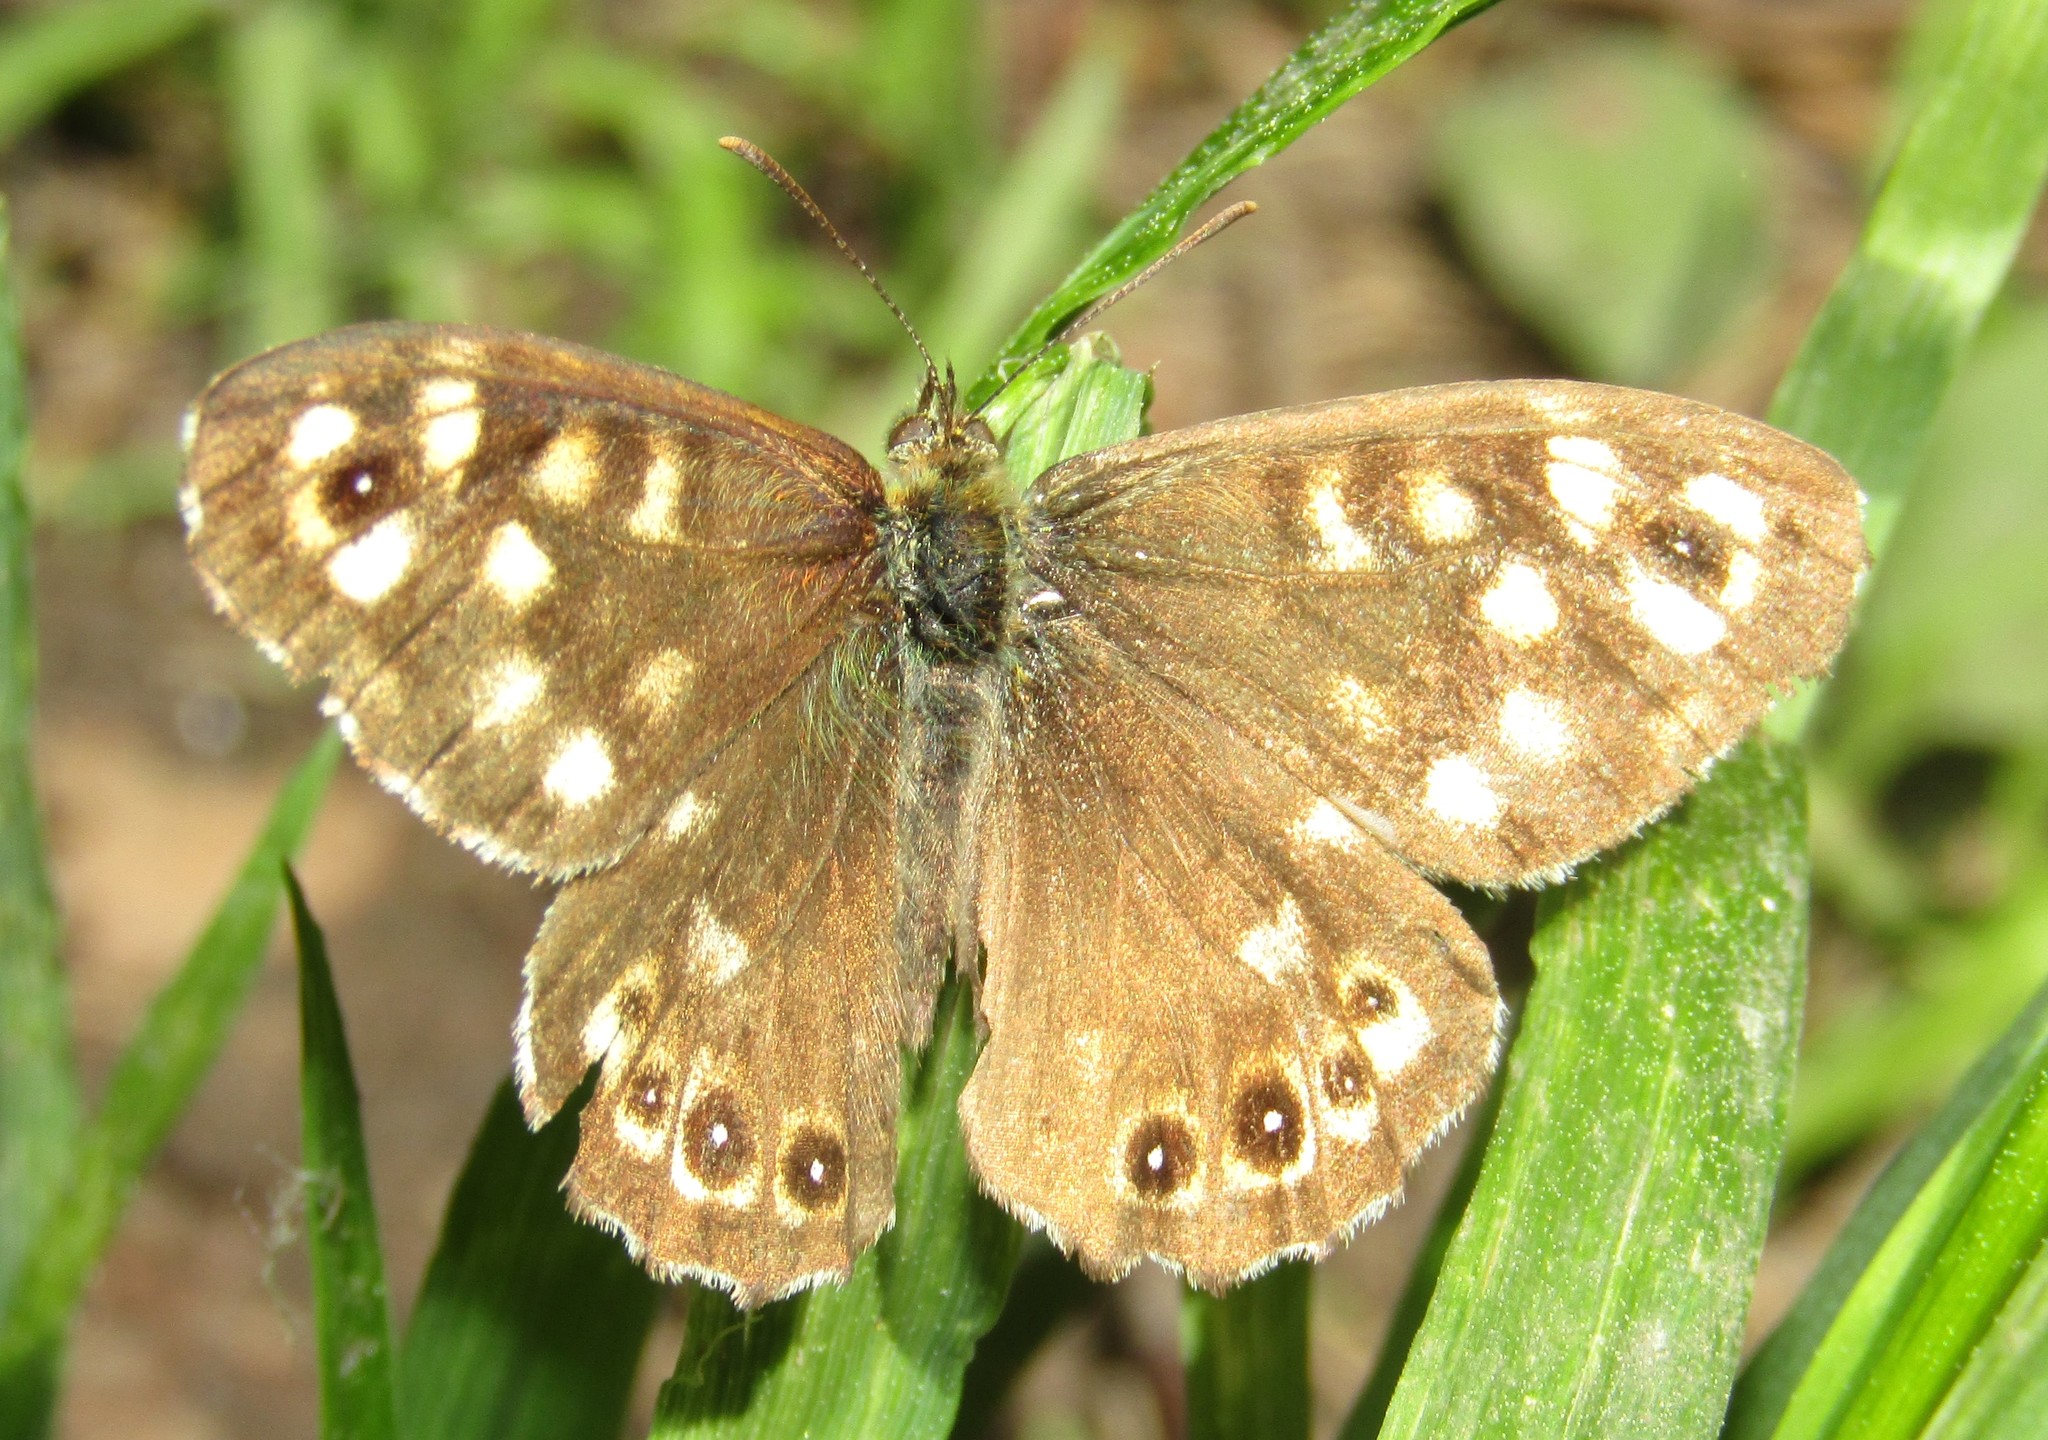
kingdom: Animalia
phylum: Arthropoda
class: Insecta
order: Lepidoptera
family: Nymphalidae
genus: Pararge
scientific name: Pararge aegeria
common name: Speckled wood
